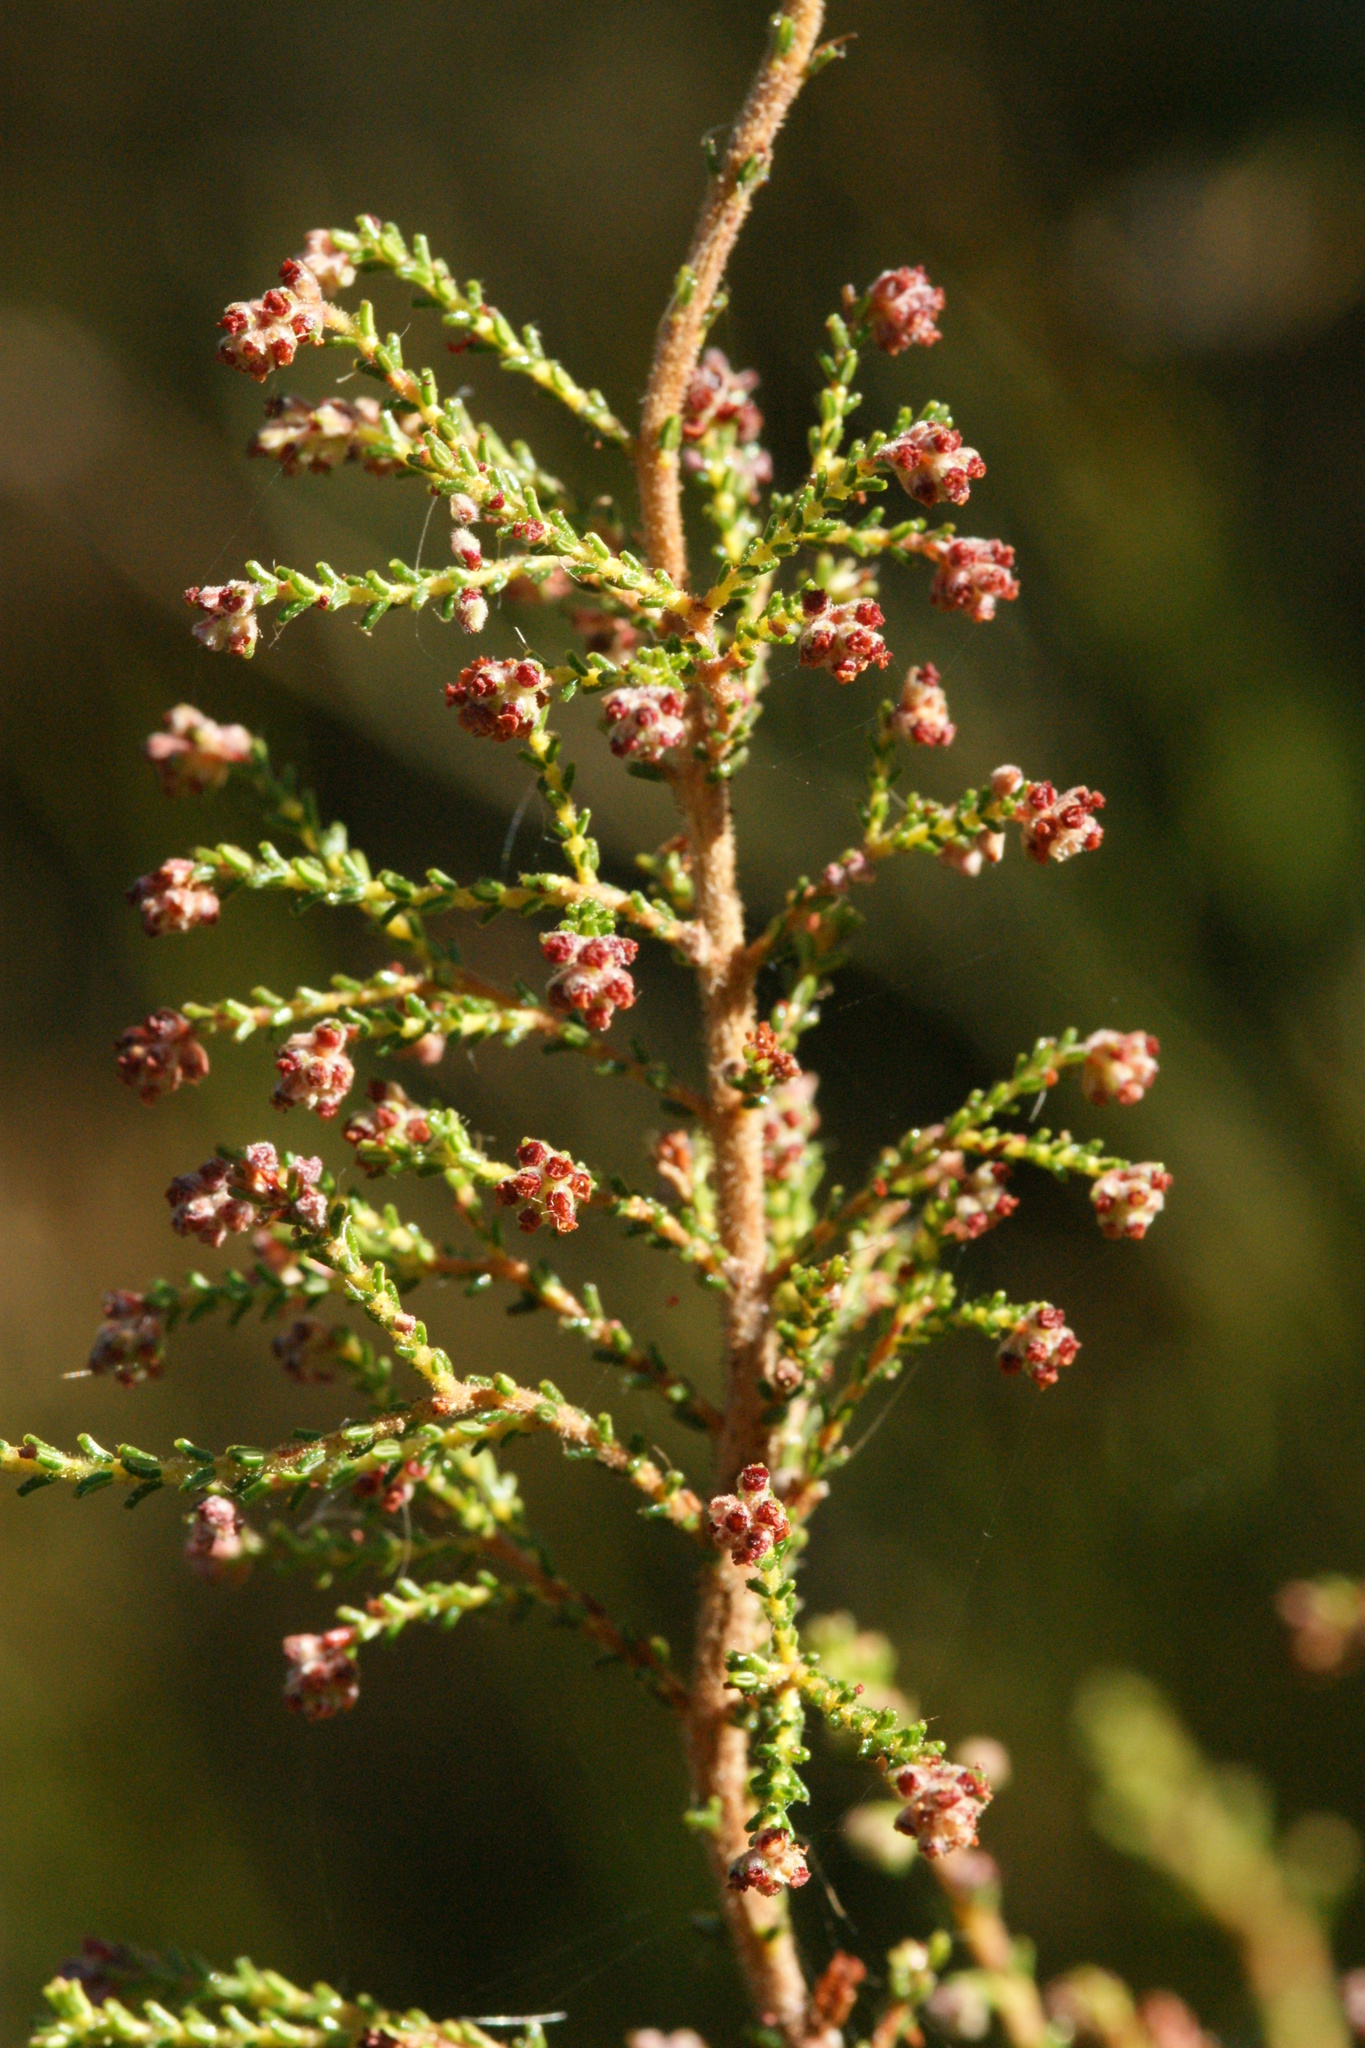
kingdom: Plantae
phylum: Tracheophyta
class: Magnoliopsida
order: Ericales
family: Ericaceae
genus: Erica
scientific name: Erica phacelanthera
